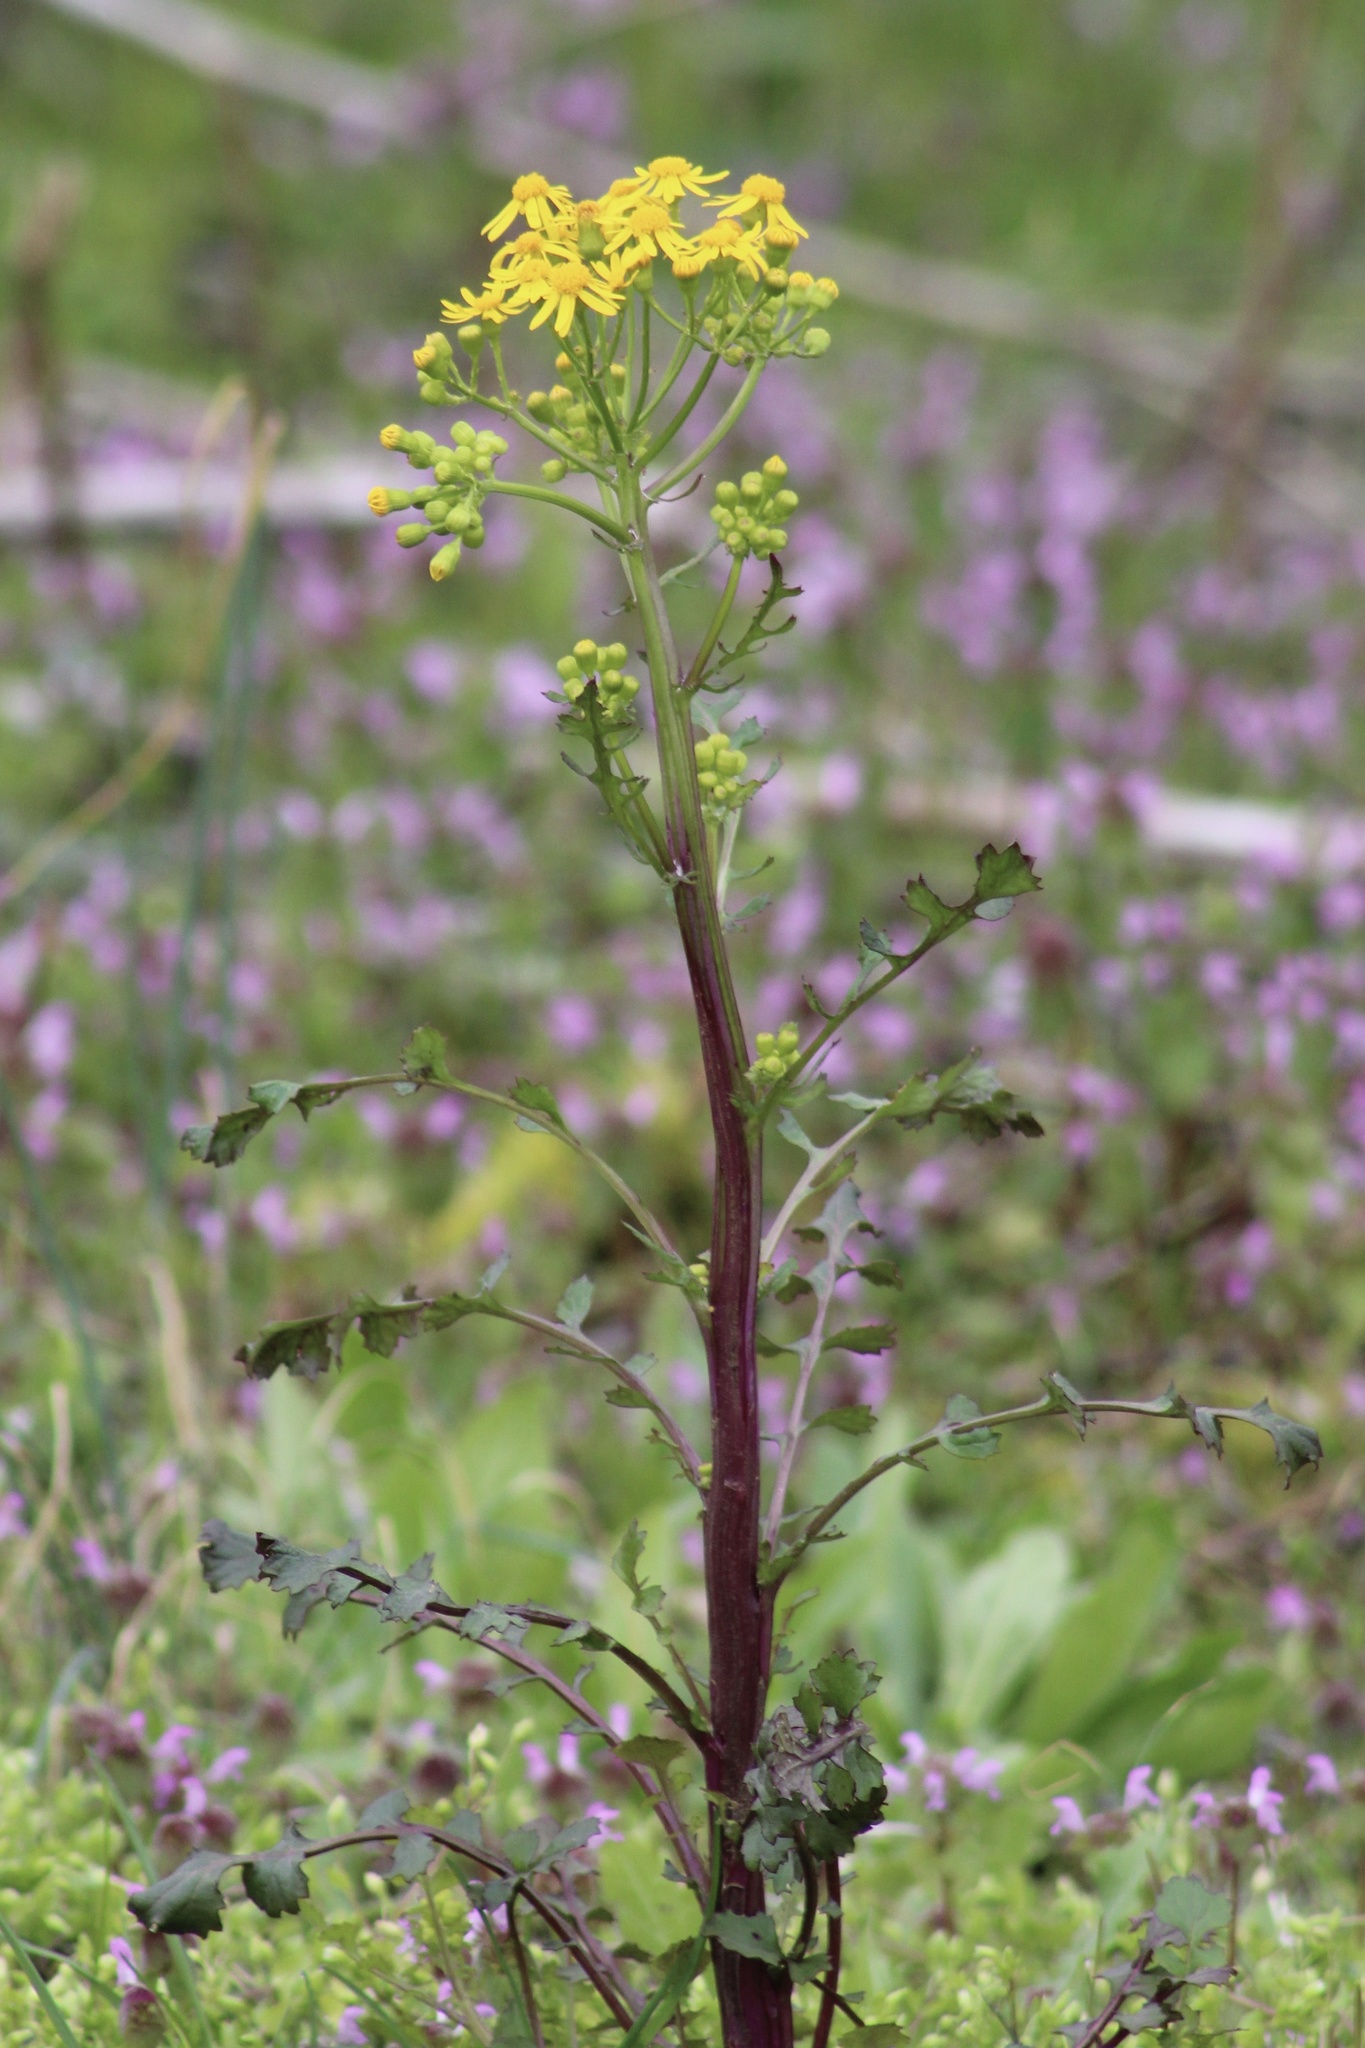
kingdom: Plantae
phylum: Tracheophyta
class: Magnoliopsida
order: Asterales
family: Asteraceae
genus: Packera
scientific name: Packera glabella
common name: Butterweed
